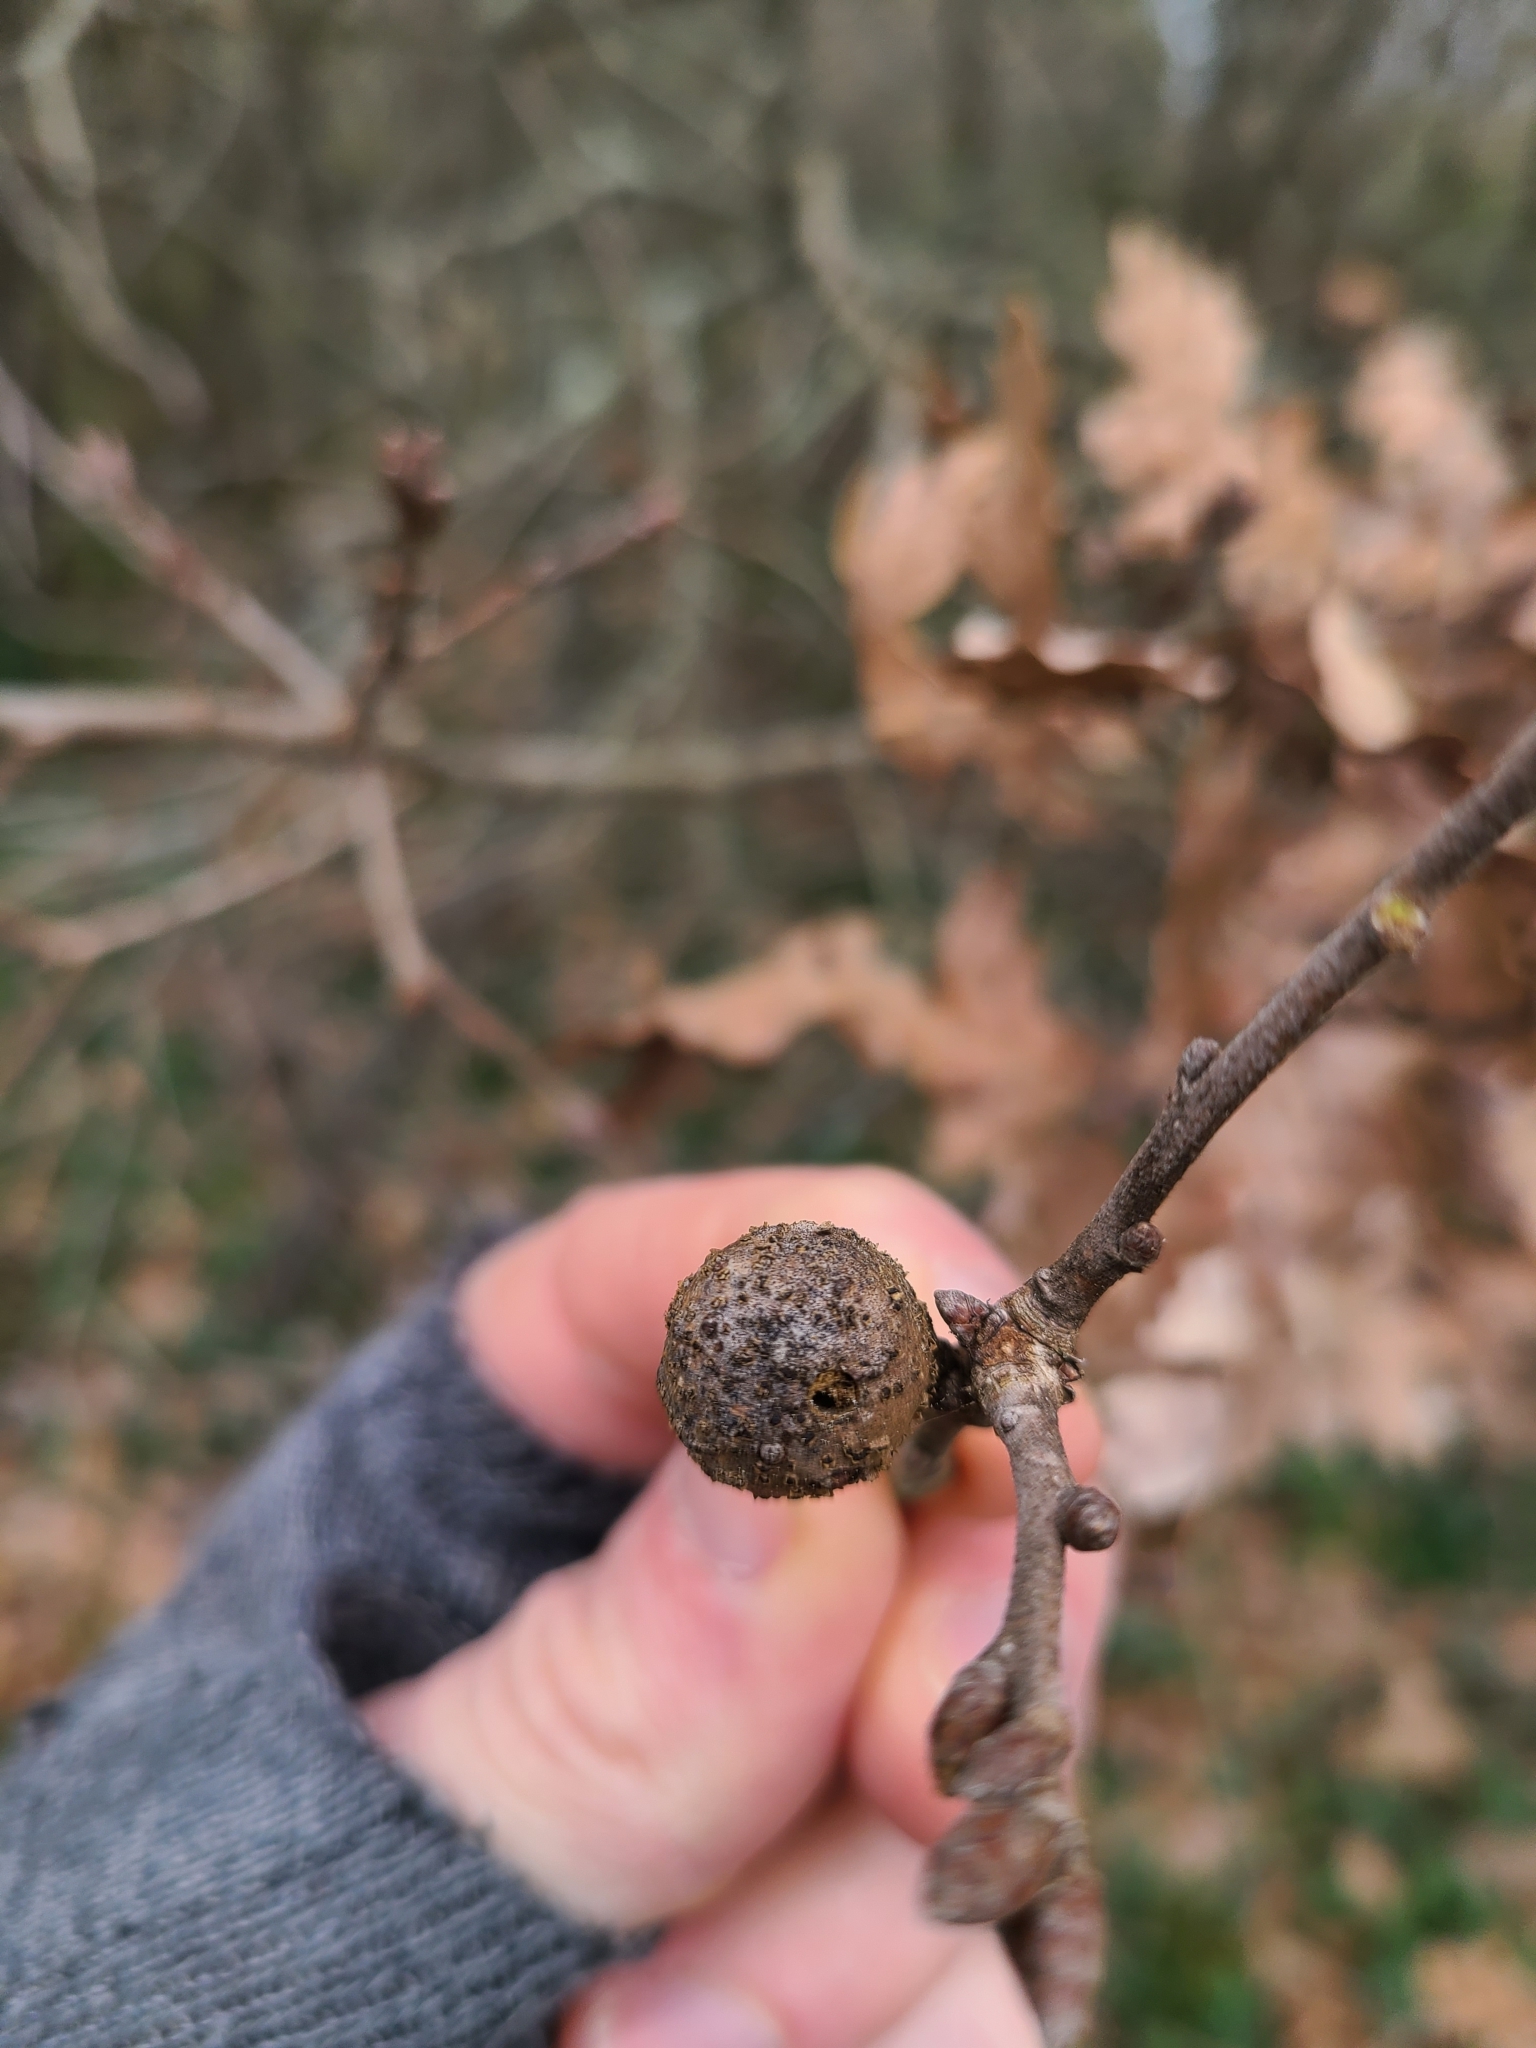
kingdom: Animalia
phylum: Arthropoda
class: Insecta
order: Hymenoptera
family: Cynipidae
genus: Andricus
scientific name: Andricus infectorius
